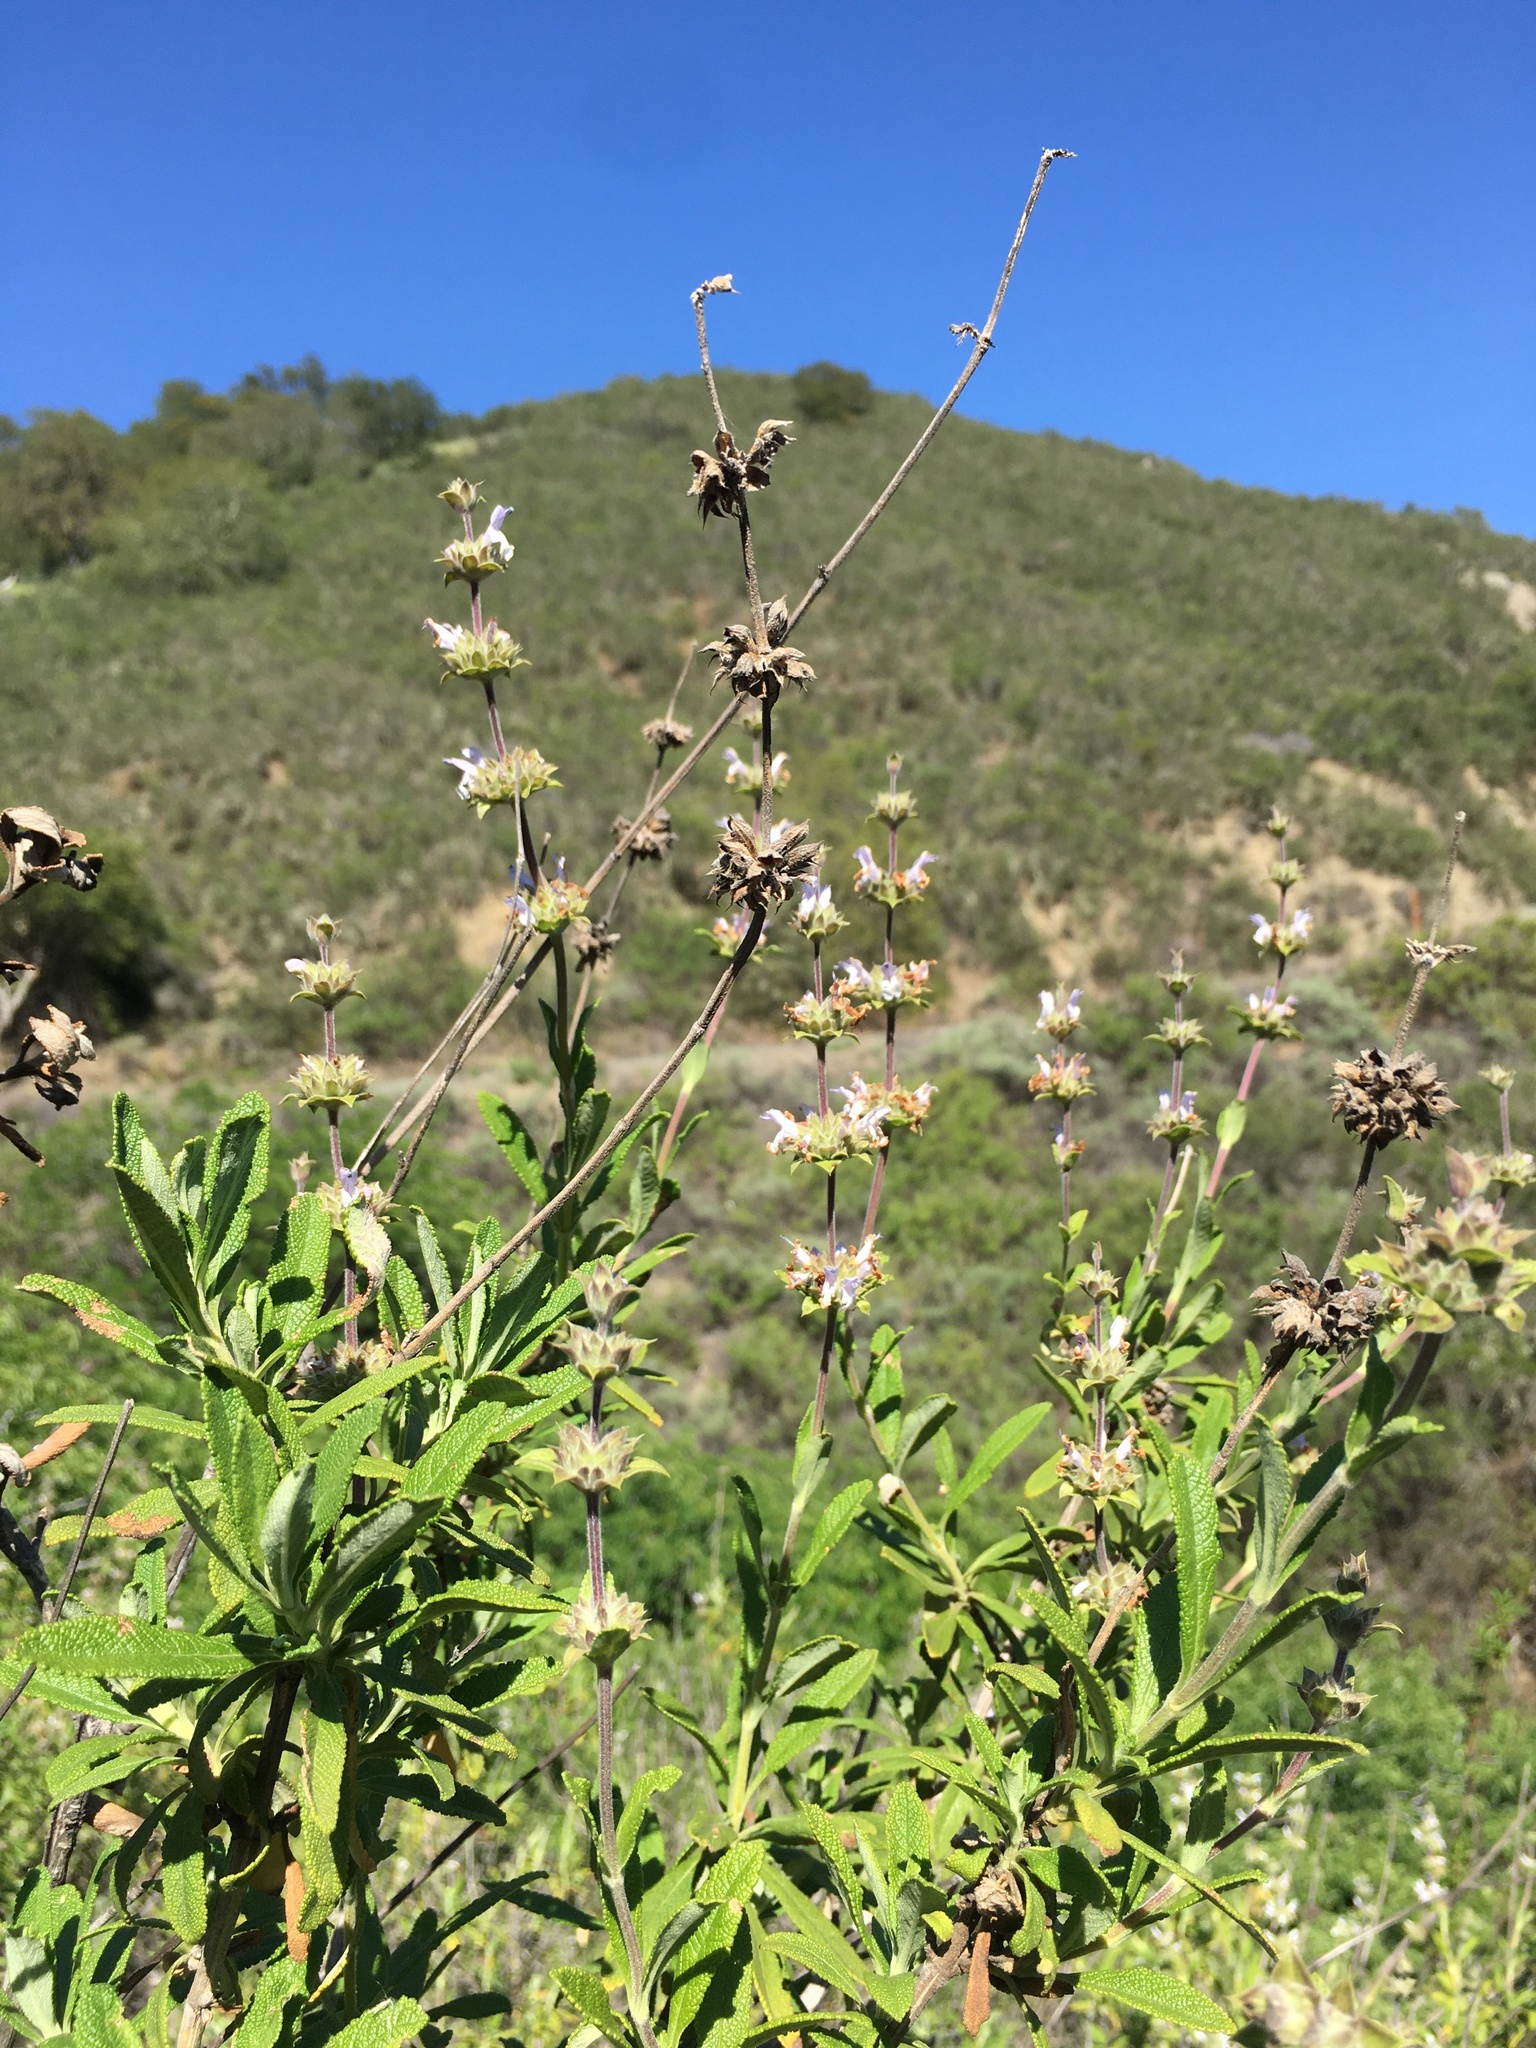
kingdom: Plantae
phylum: Tracheophyta
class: Magnoliopsida
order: Lamiales
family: Lamiaceae
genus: Salvia
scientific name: Salvia mellifera
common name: Black sage
